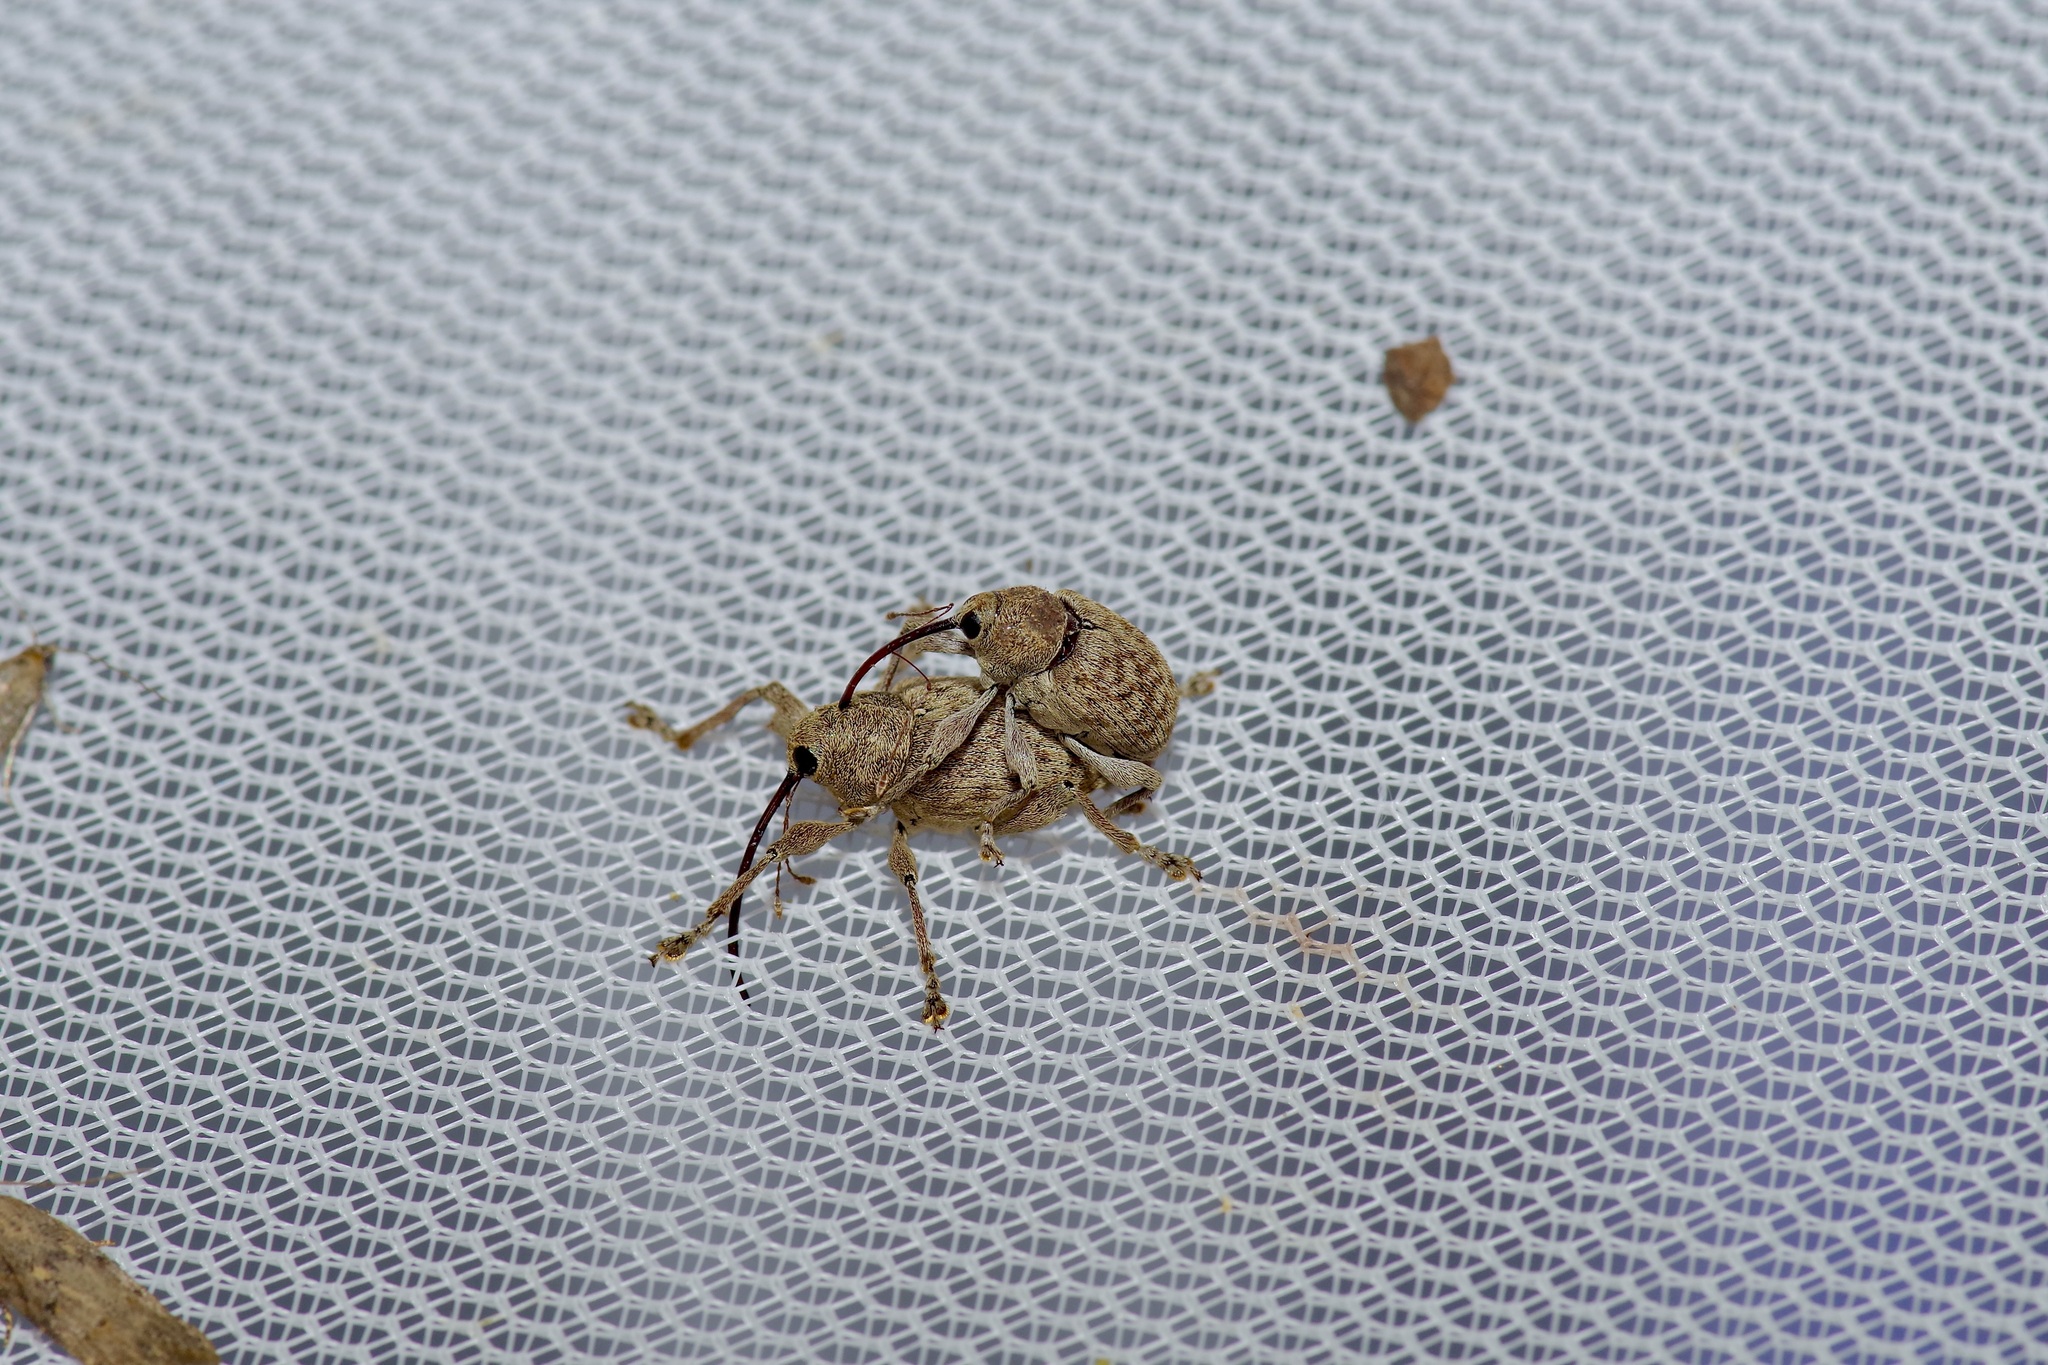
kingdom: Animalia
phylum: Arthropoda
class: Insecta
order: Coleoptera
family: Curculionidae
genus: Curculio
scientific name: Curculio
